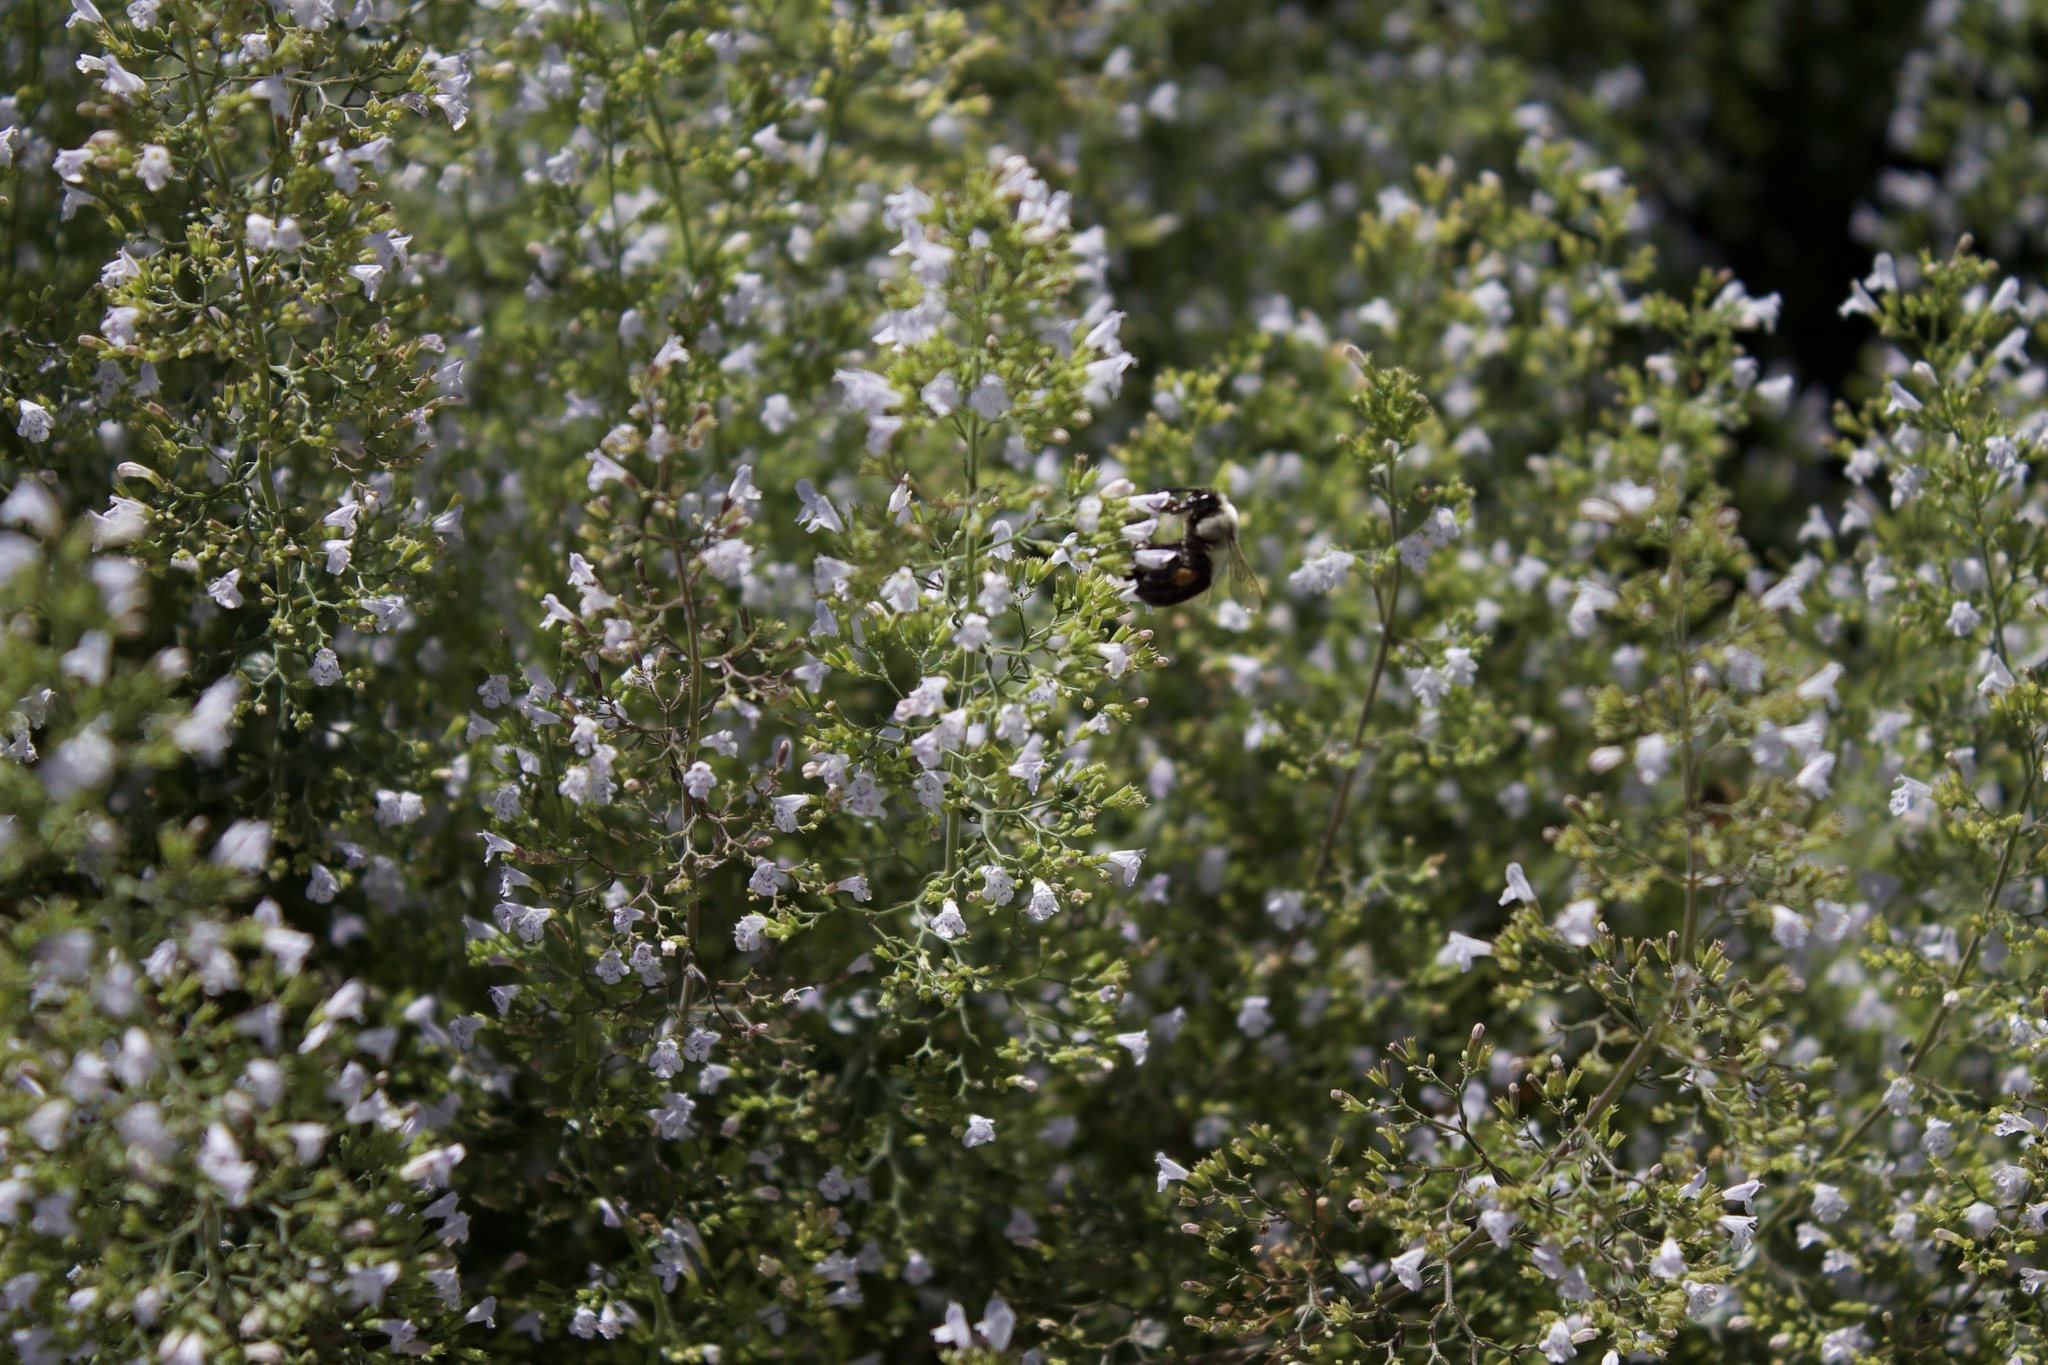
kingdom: Animalia
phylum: Arthropoda
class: Insecta
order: Hymenoptera
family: Apidae
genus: Bombus
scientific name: Bombus impatiens
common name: Common eastern bumble bee
